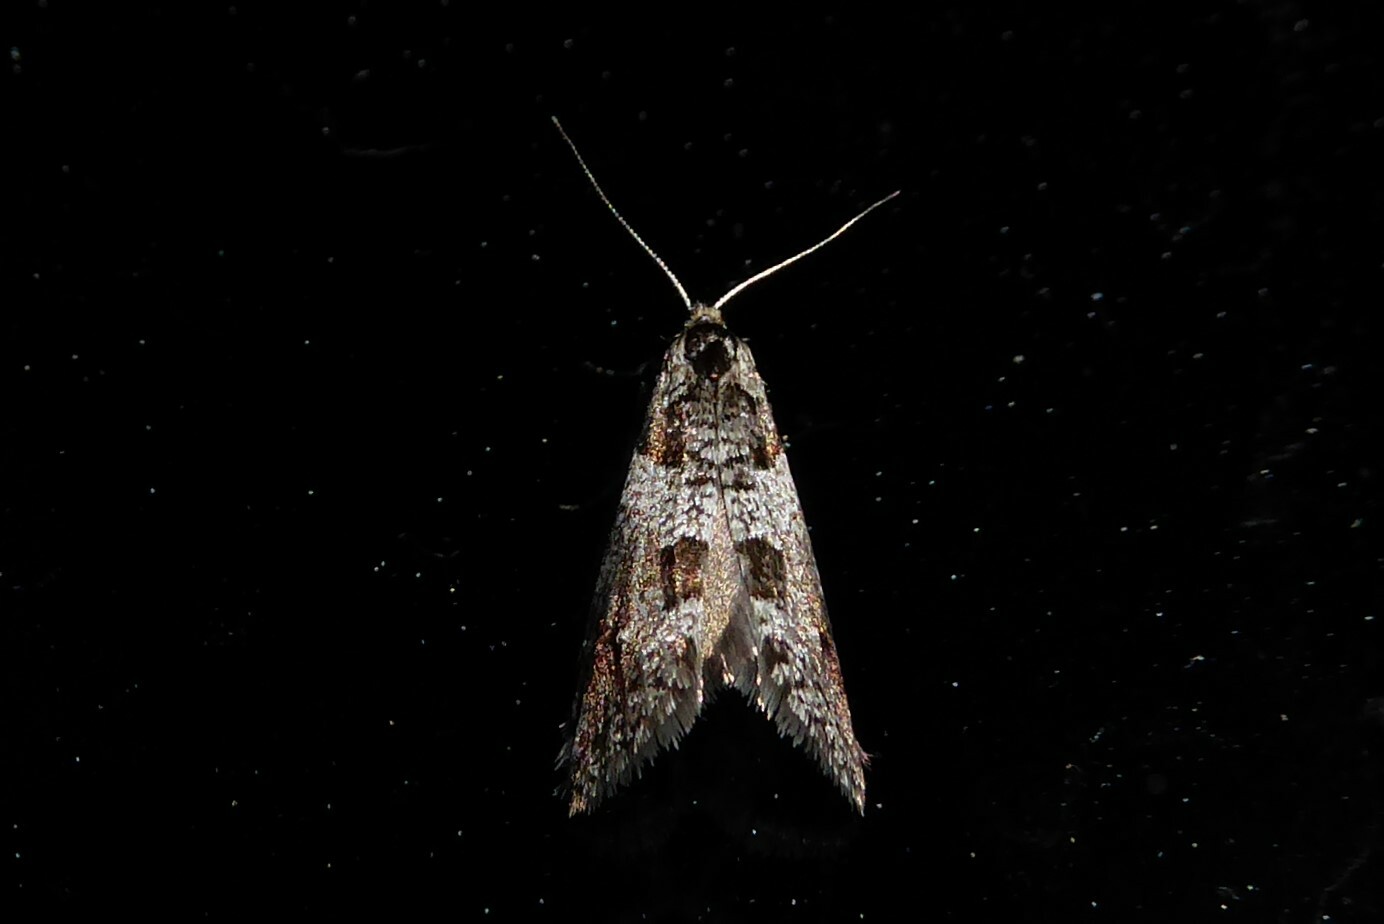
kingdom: Animalia
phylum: Arthropoda
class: Insecta
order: Lepidoptera
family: Psychidae
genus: Lepidoscia
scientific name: Lepidoscia heliochares
